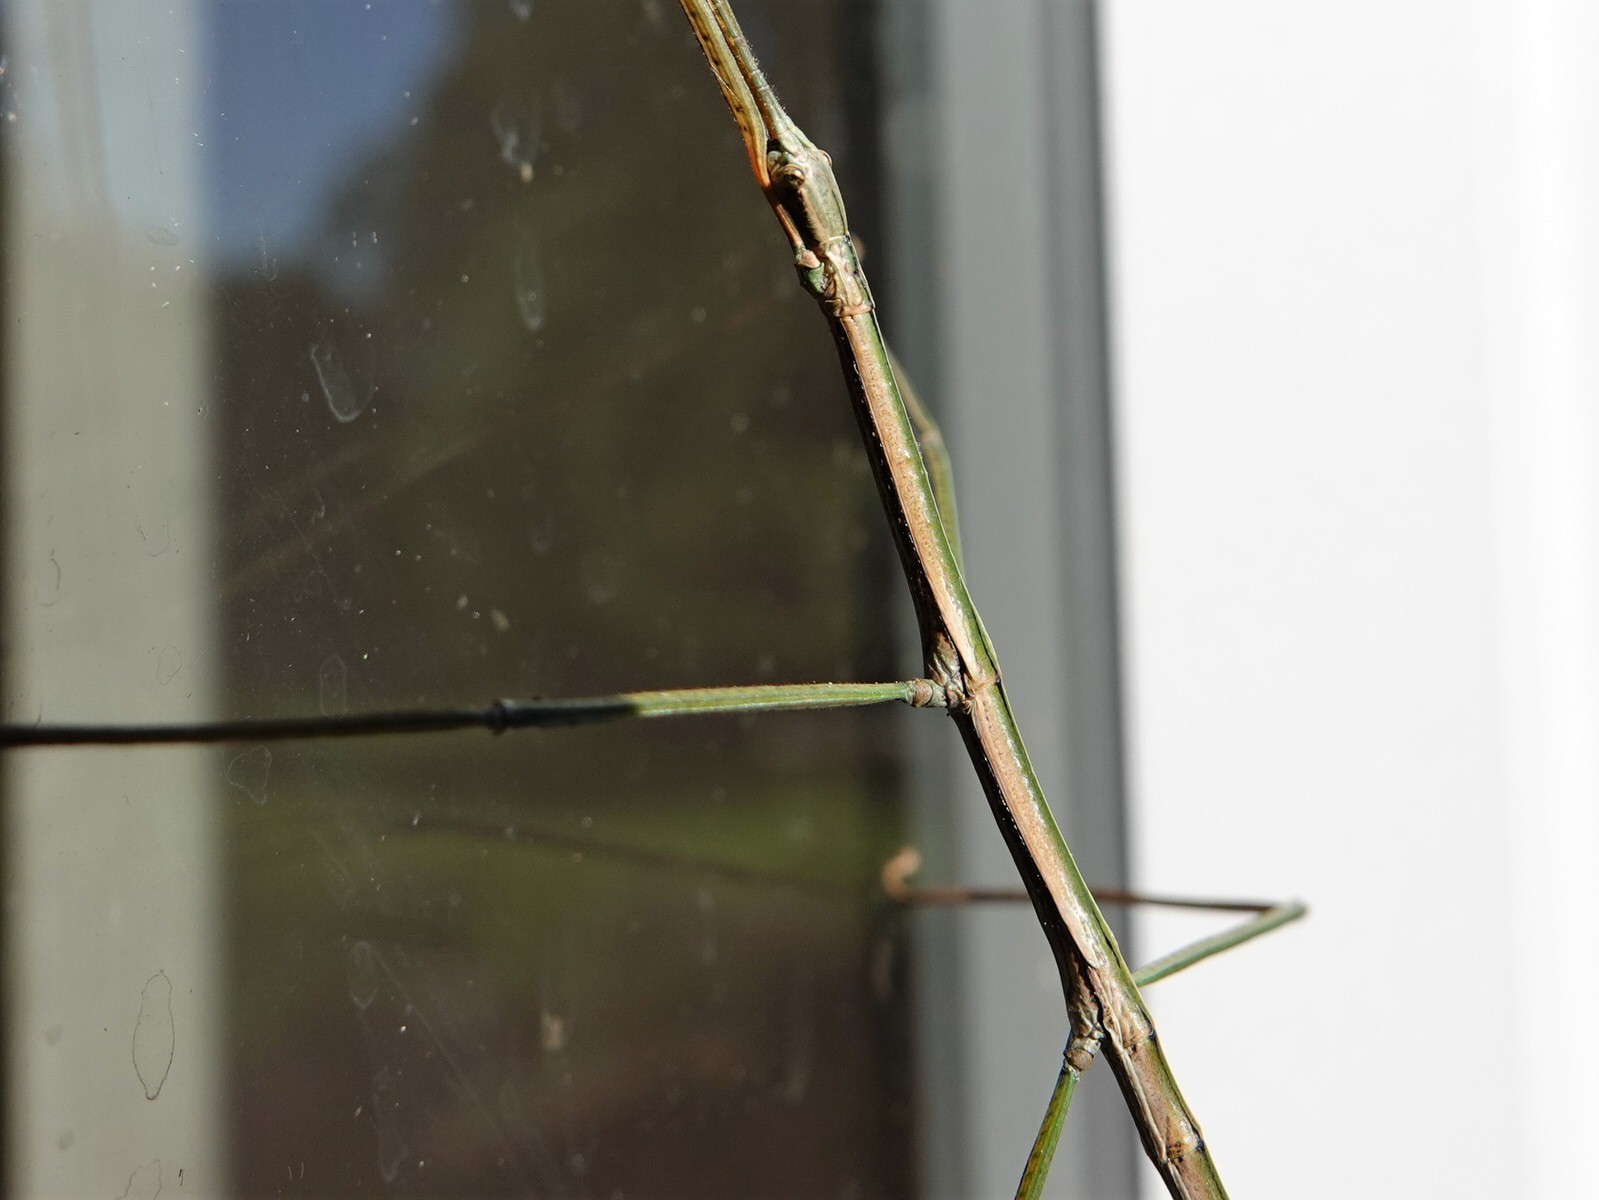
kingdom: Animalia
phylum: Arthropoda
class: Insecta
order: Phasmida
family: Phasmatidae
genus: Clitarchus
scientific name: Clitarchus hookeri
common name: Smooth stick insect
